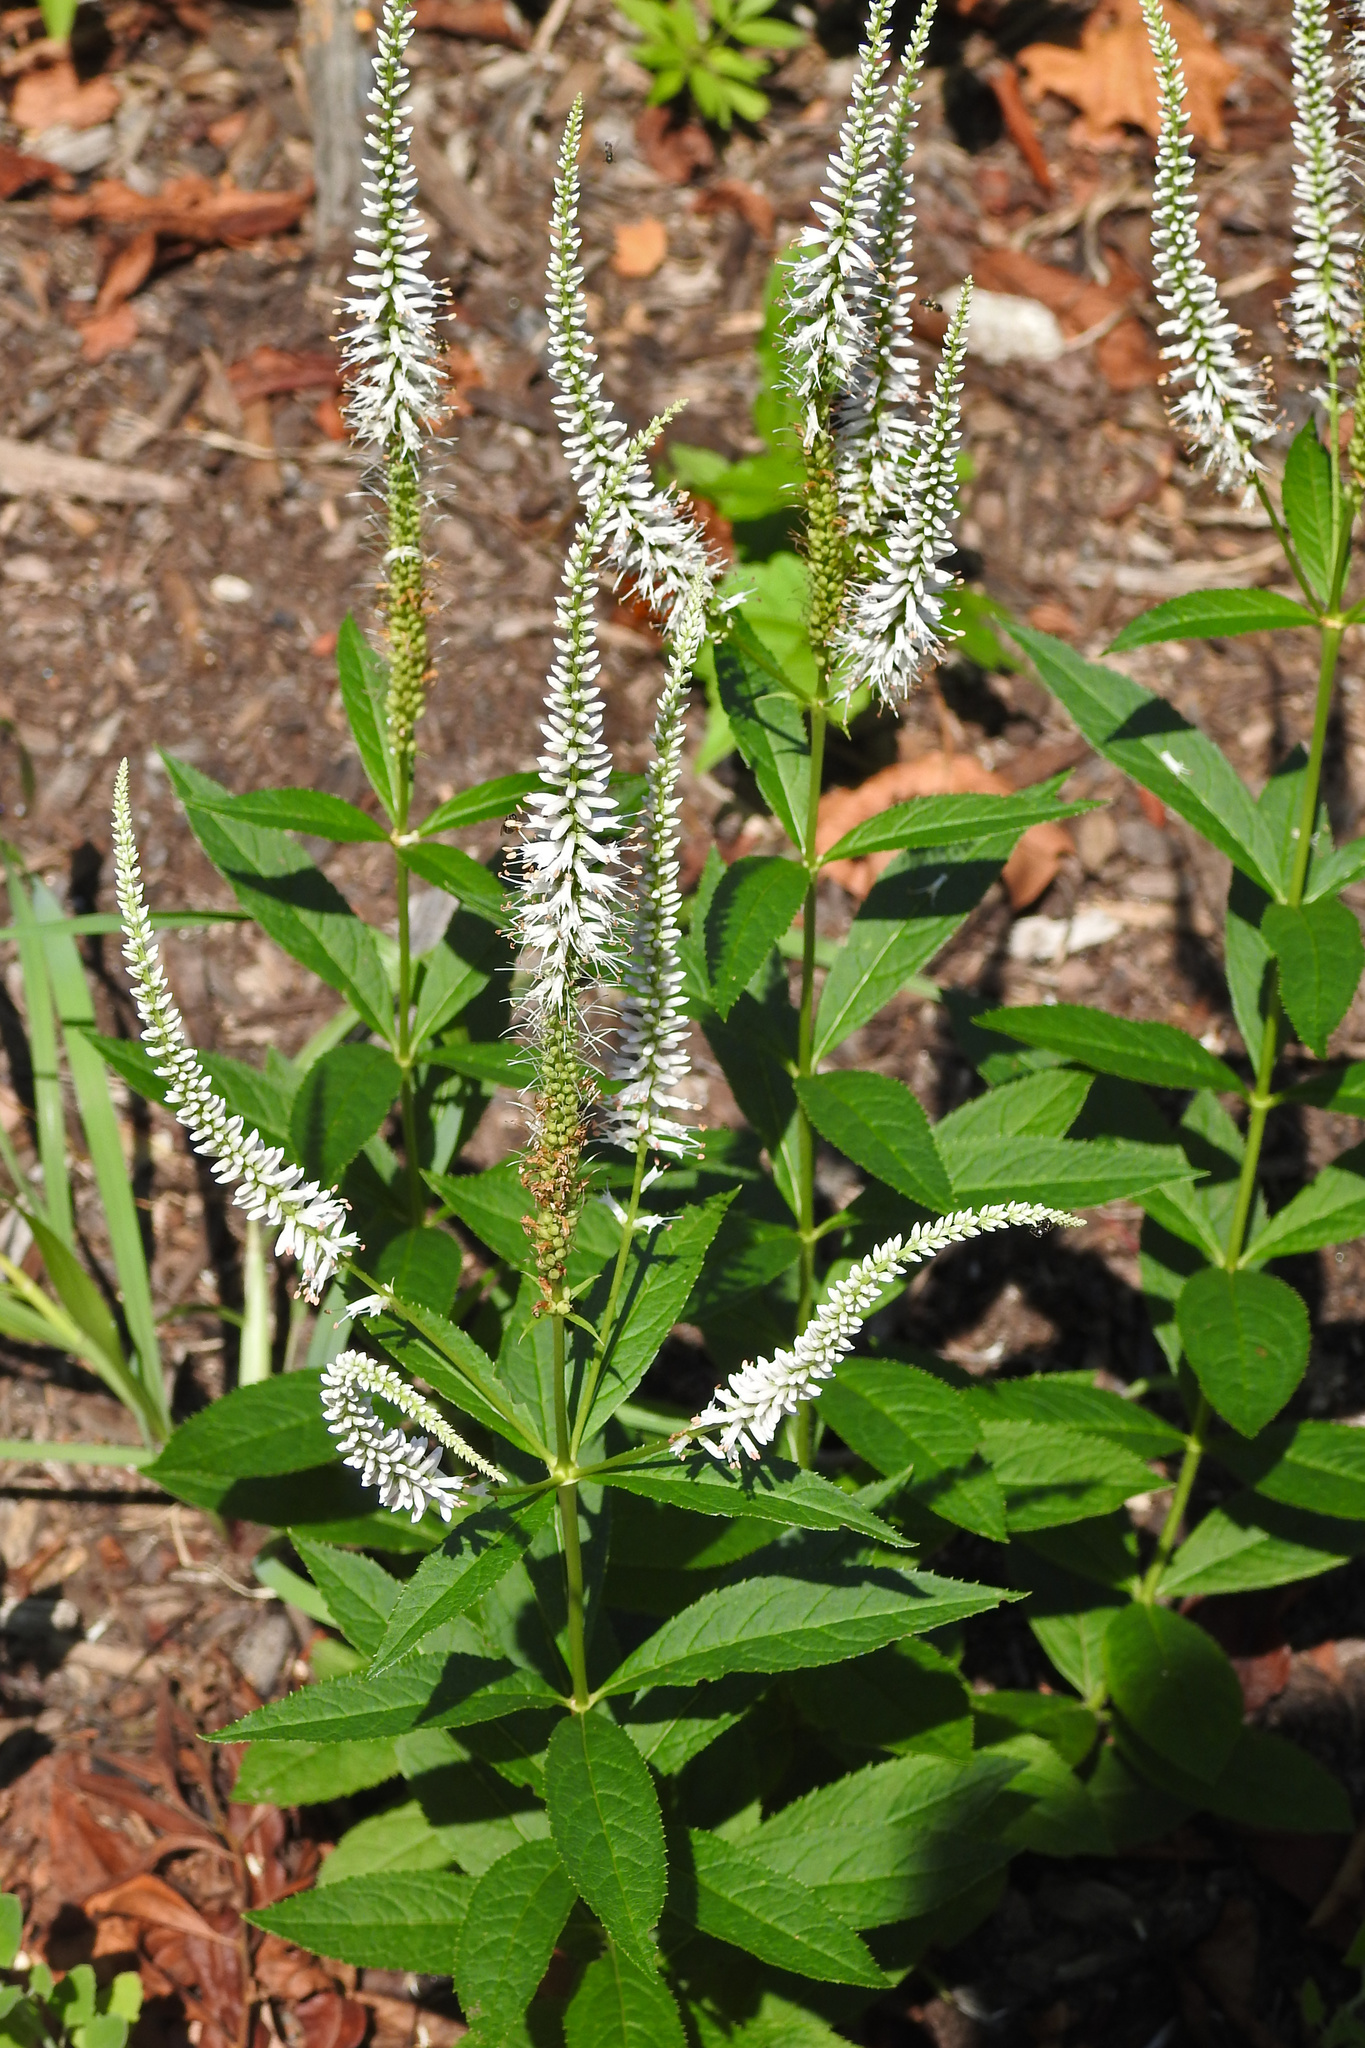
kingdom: Plantae
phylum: Tracheophyta
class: Magnoliopsida
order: Lamiales
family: Plantaginaceae
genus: Veronicastrum
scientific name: Veronicastrum virginicum
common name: Blackroot
